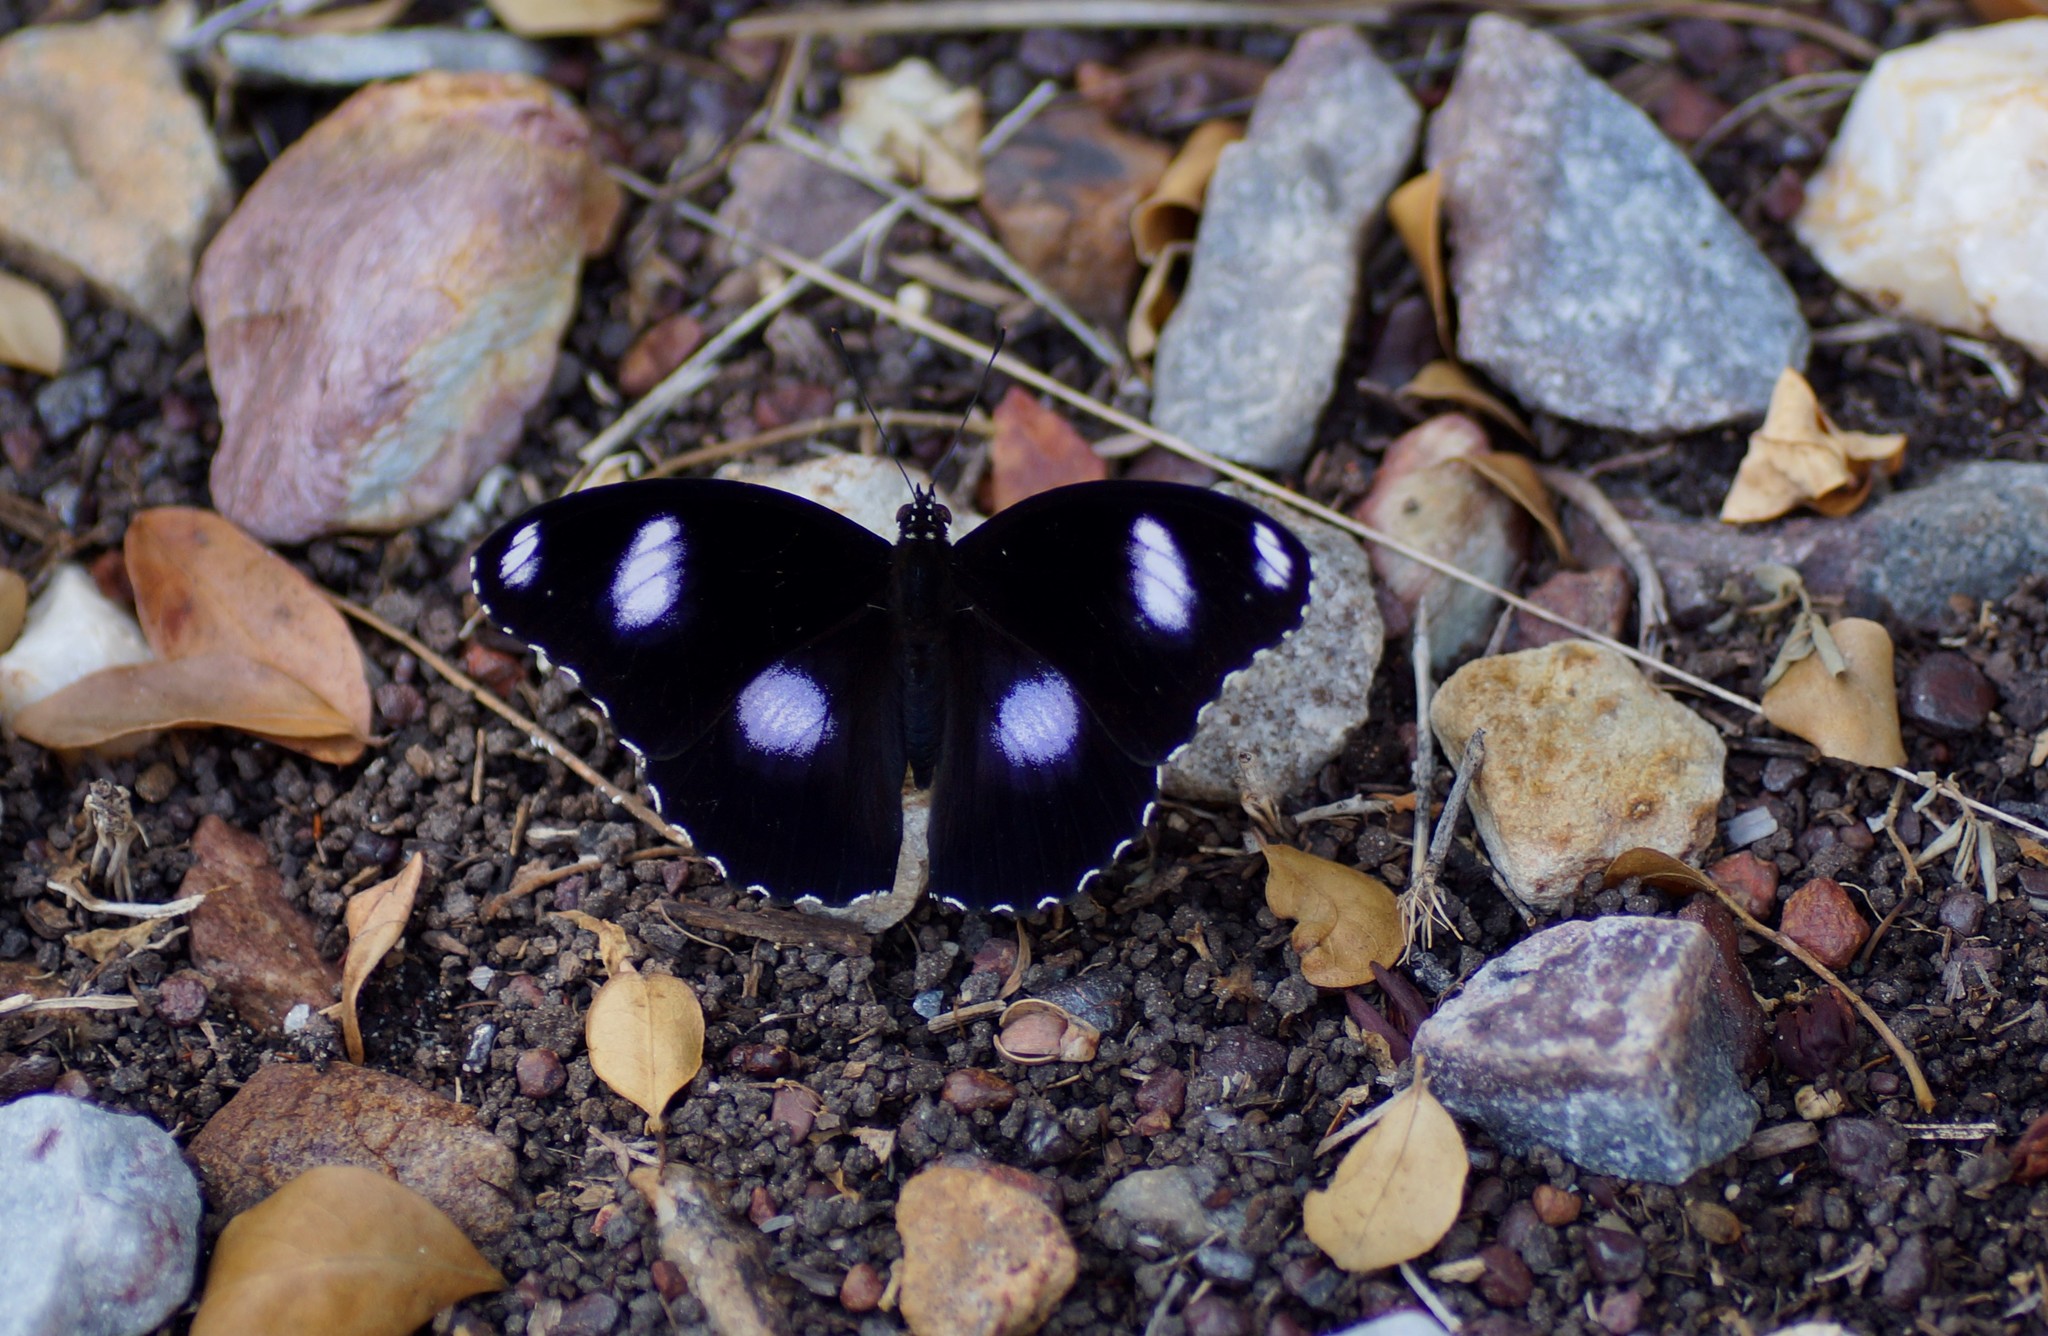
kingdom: Animalia
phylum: Arthropoda
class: Insecta
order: Lepidoptera
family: Nymphalidae
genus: Hypolimnas
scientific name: Hypolimnas bolina
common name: Great eggfly
